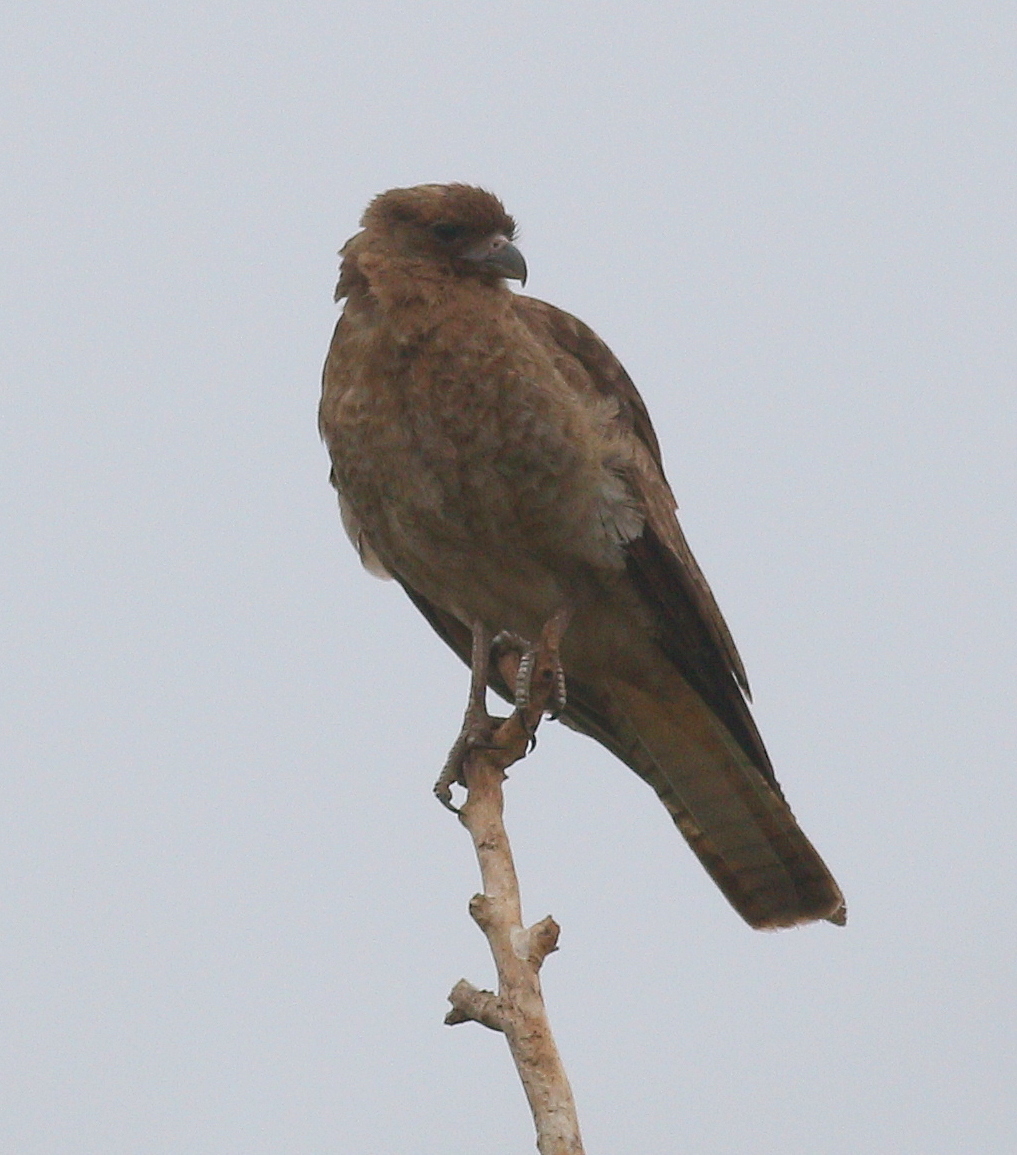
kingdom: Animalia
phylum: Chordata
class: Aves
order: Falconiformes
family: Falconidae
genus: Daptrius
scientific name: Daptrius
